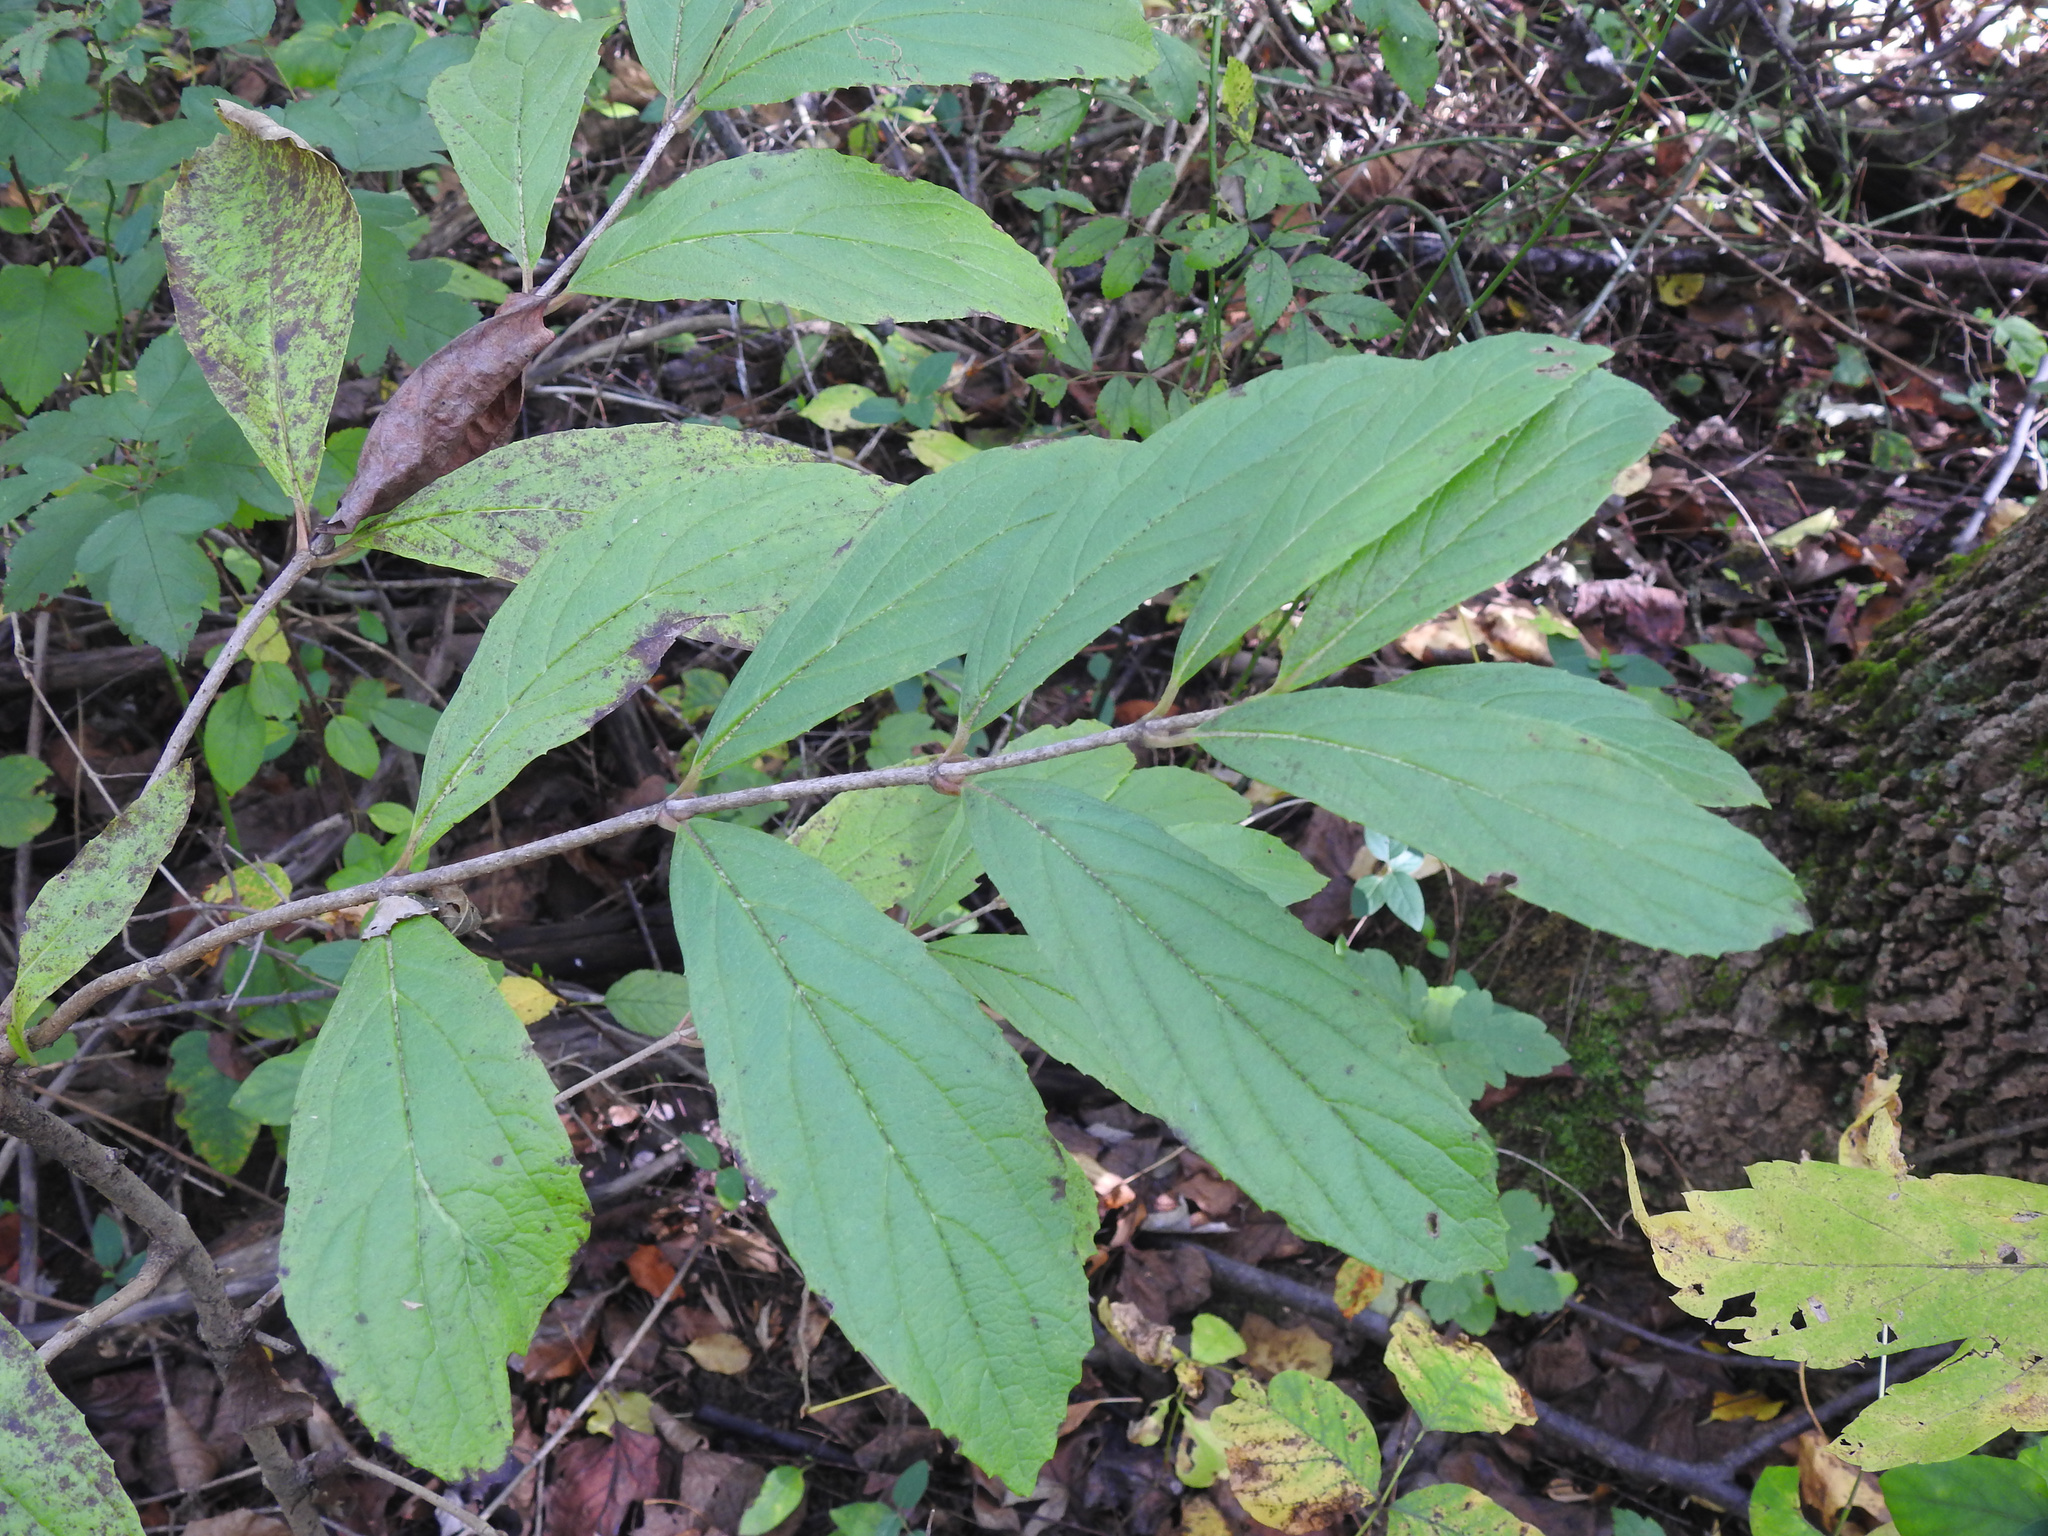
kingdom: Plantae
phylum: Tracheophyta
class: Magnoliopsida
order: Dipsacales
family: Viburnaceae
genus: Viburnum
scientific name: Viburnum sieboldii
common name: Siebold's arrowwood
